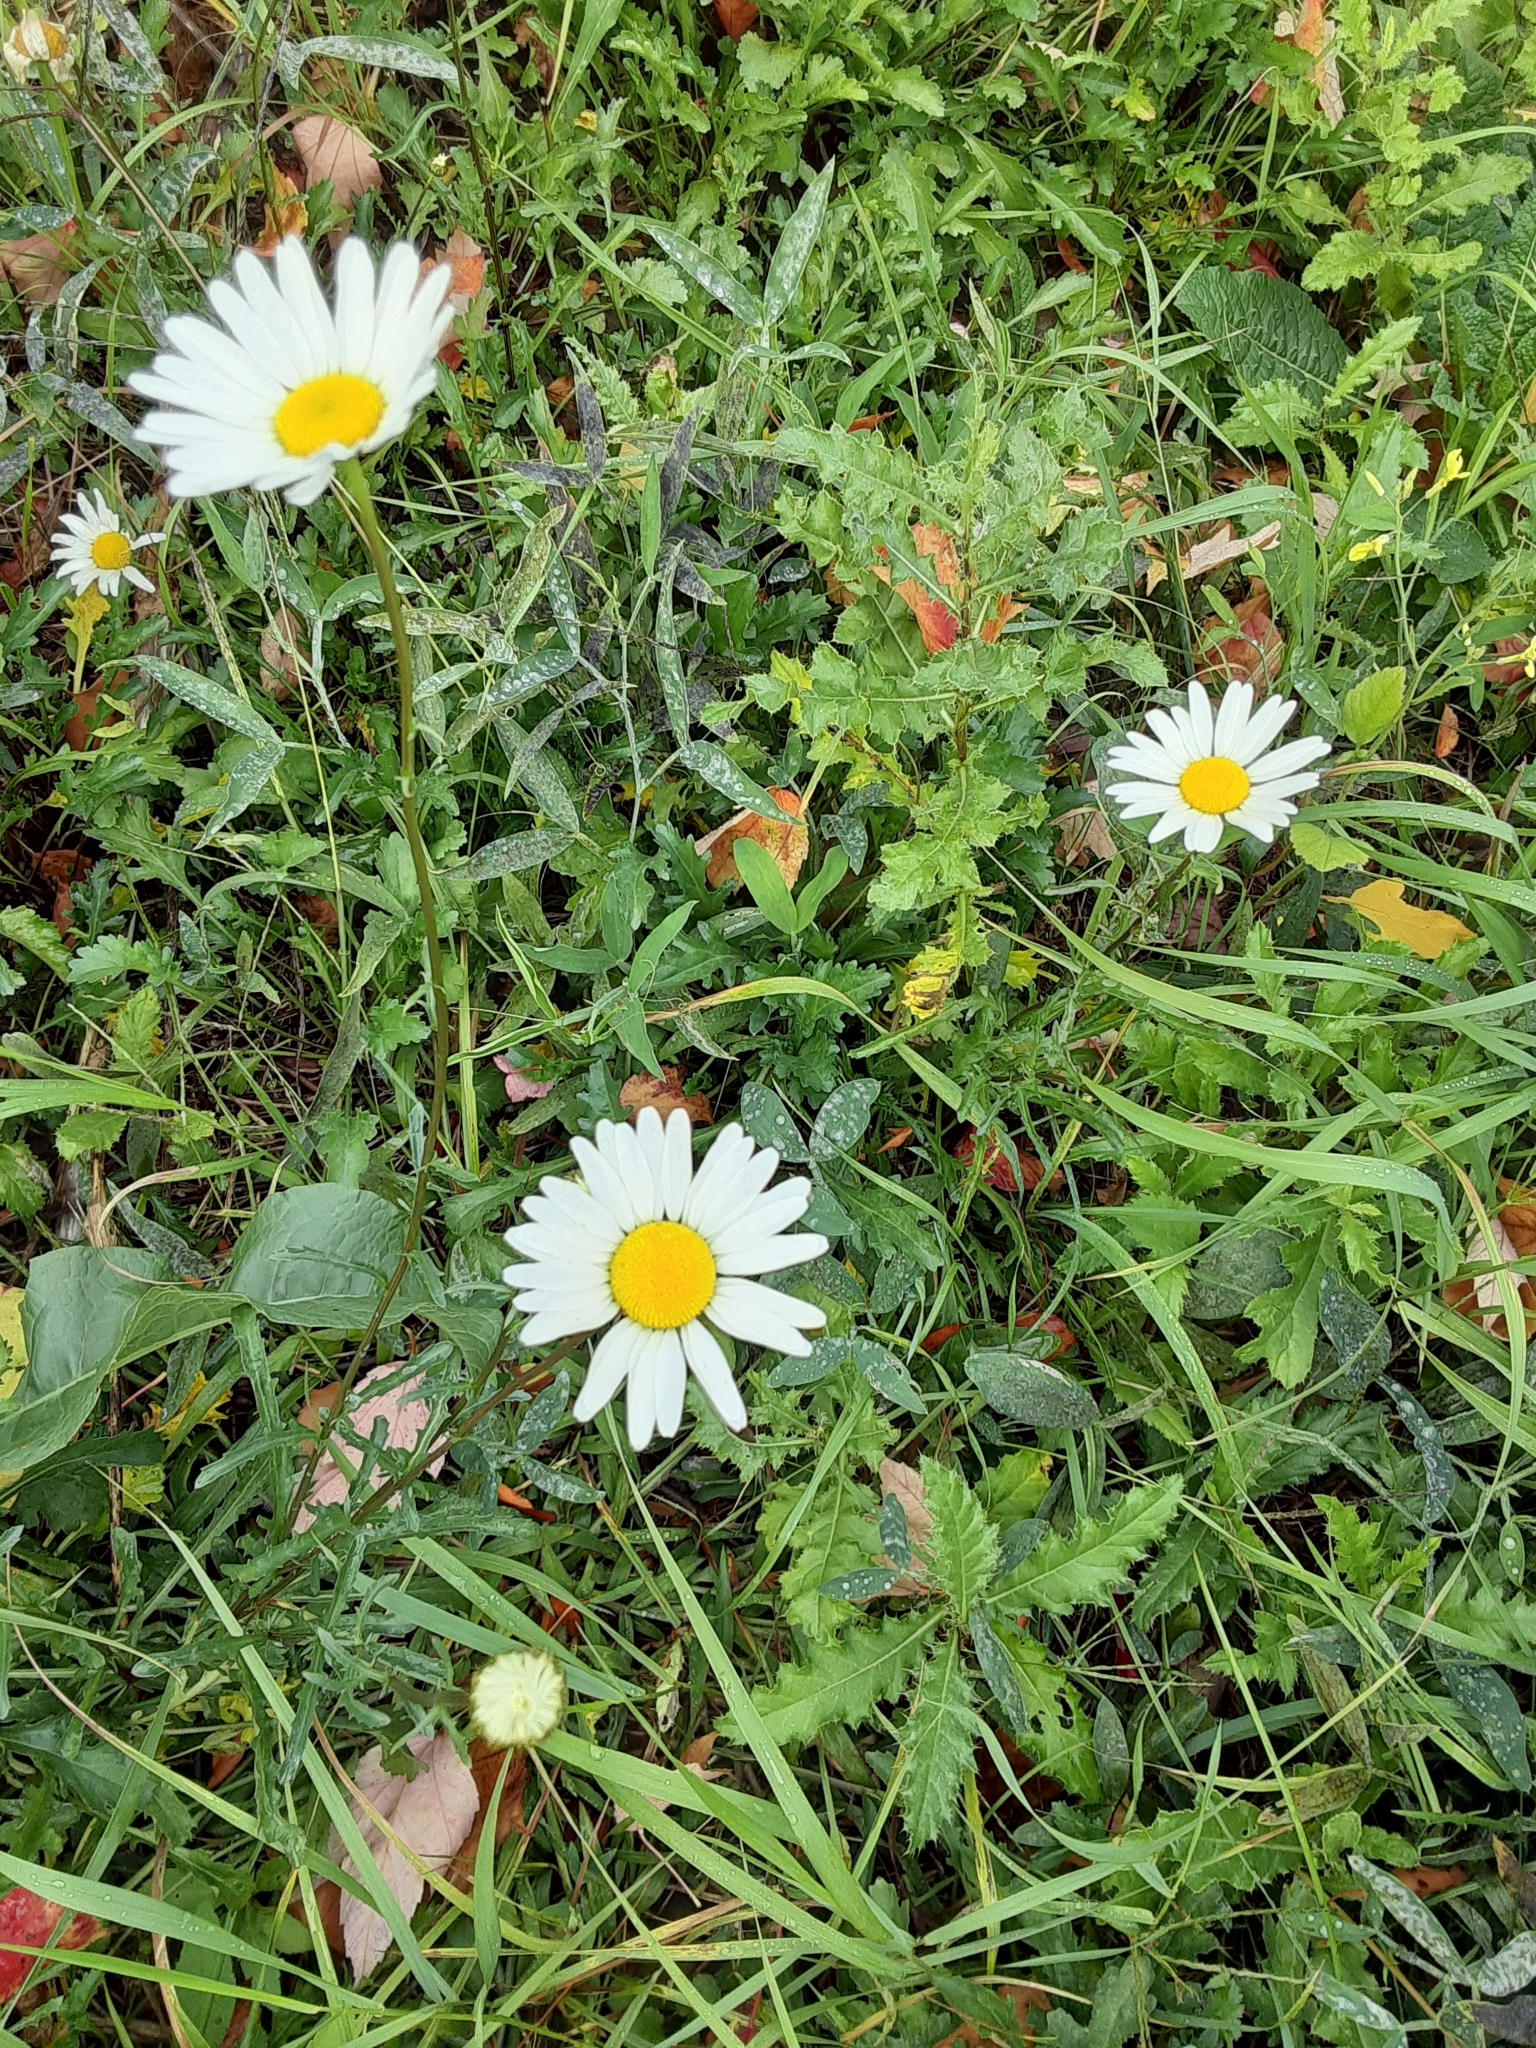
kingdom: Plantae
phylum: Tracheophyta
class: Magnoliopsida
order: Asterales
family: Asteraceae
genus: Leucanthemum
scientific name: Leucanthemum vulgare
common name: Oxeye daisy
